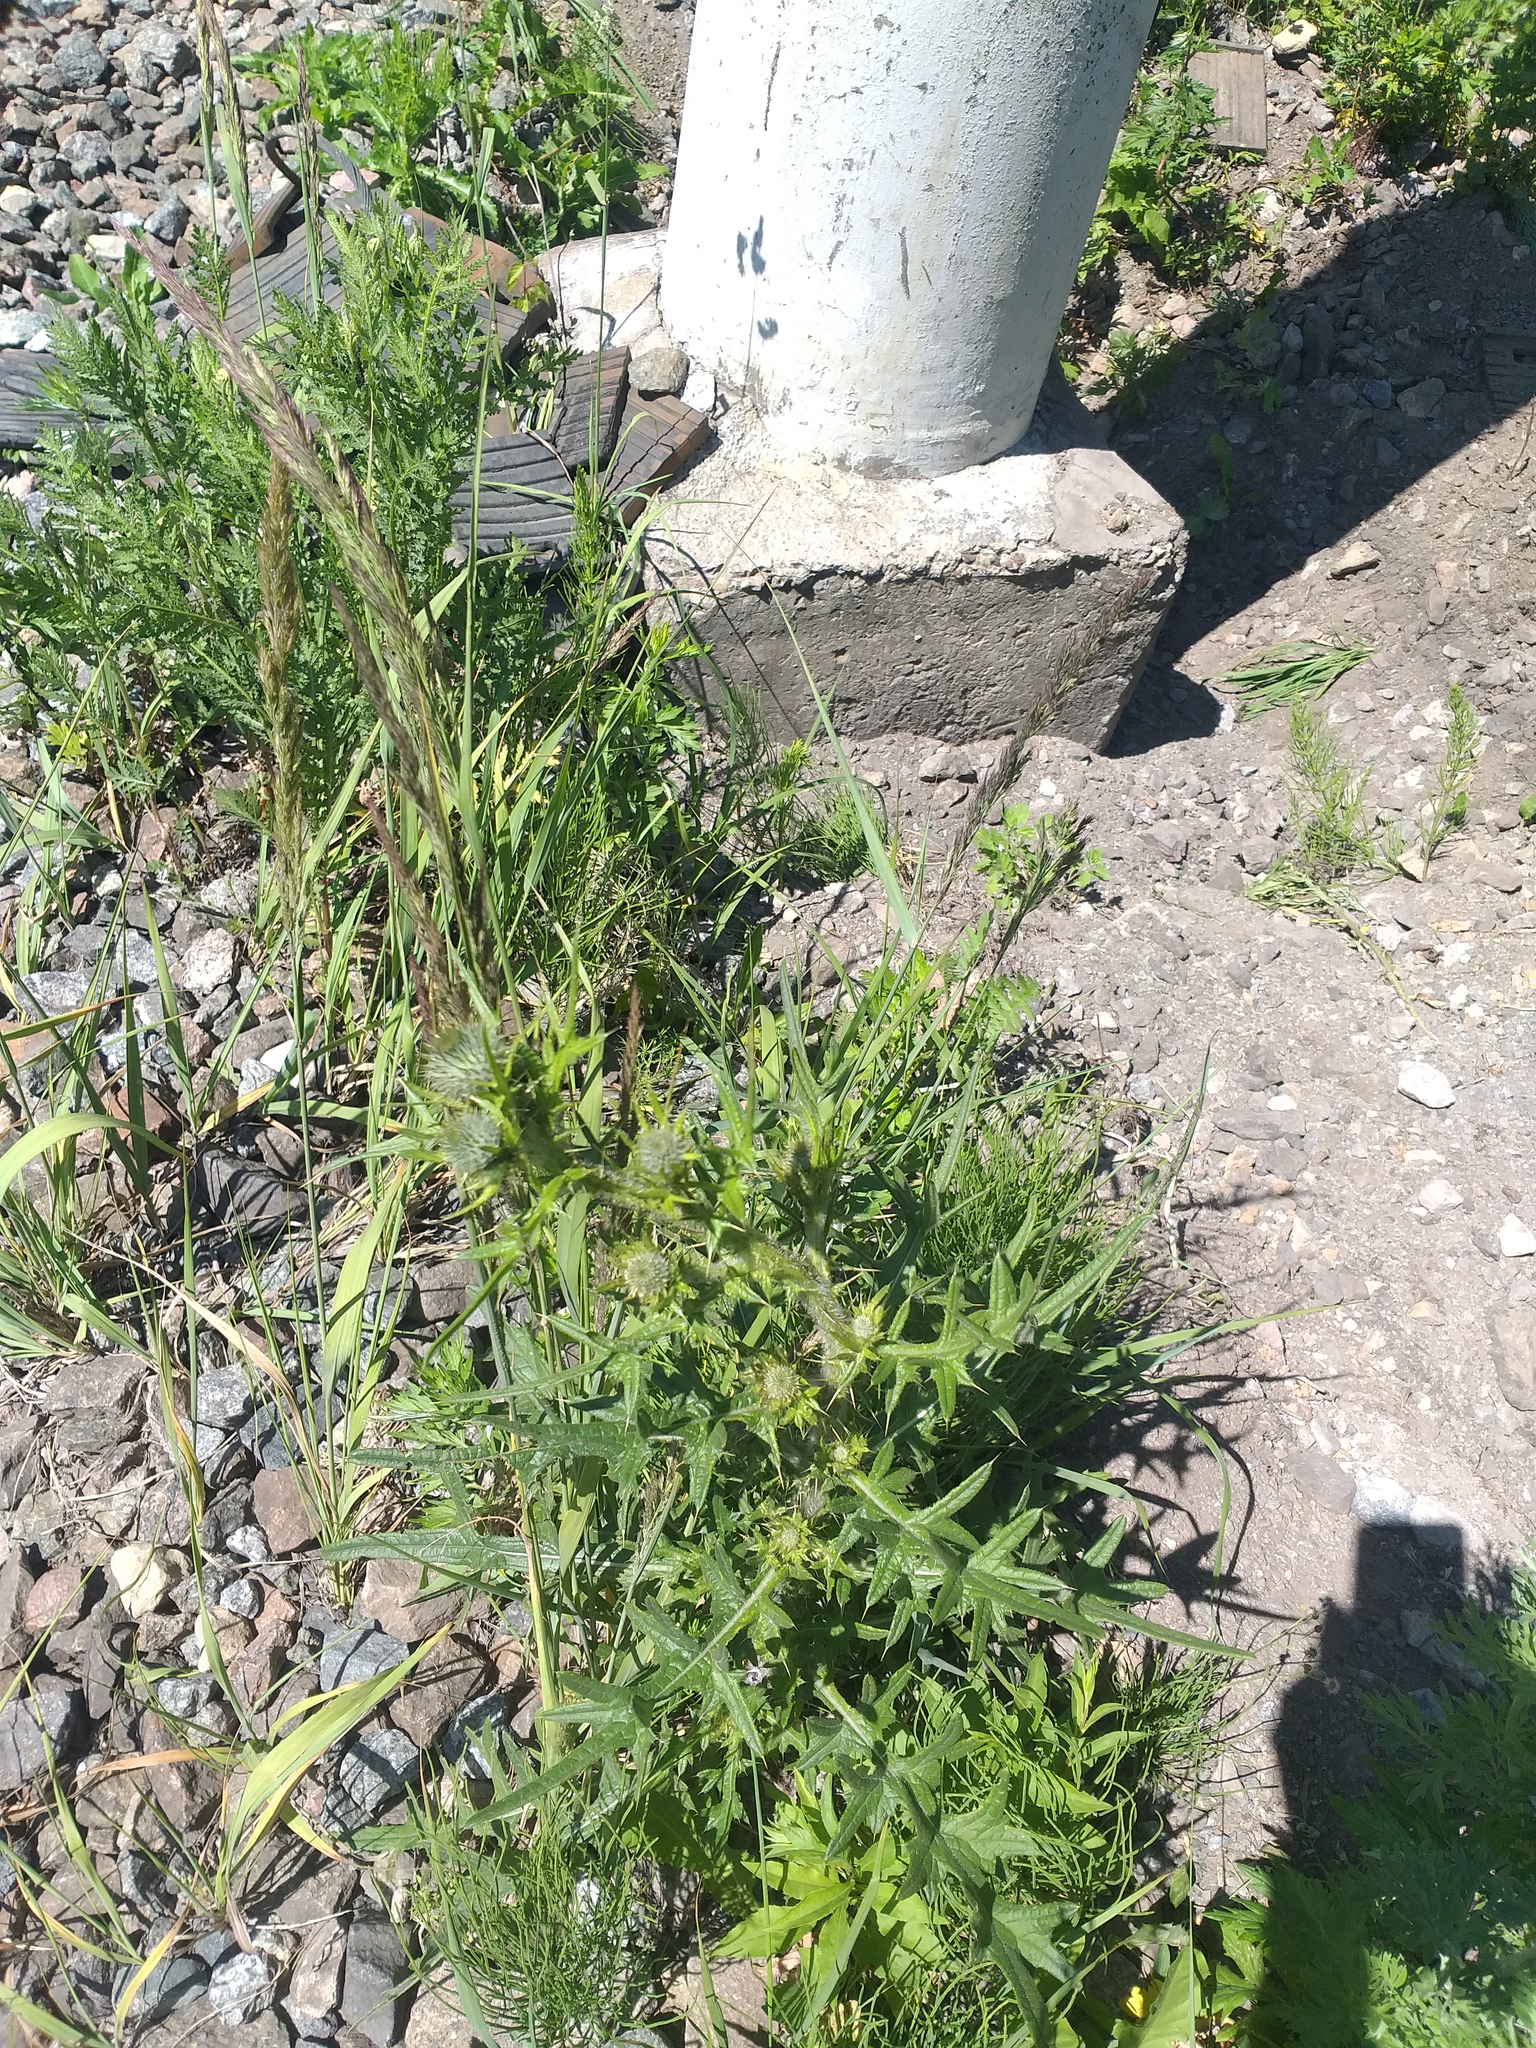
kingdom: Plantae
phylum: Tracheophyta
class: Magnoliopsida
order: Asterales
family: Asteraceae
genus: Cirsium
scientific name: Cirsium vulgare
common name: Bull thistle
